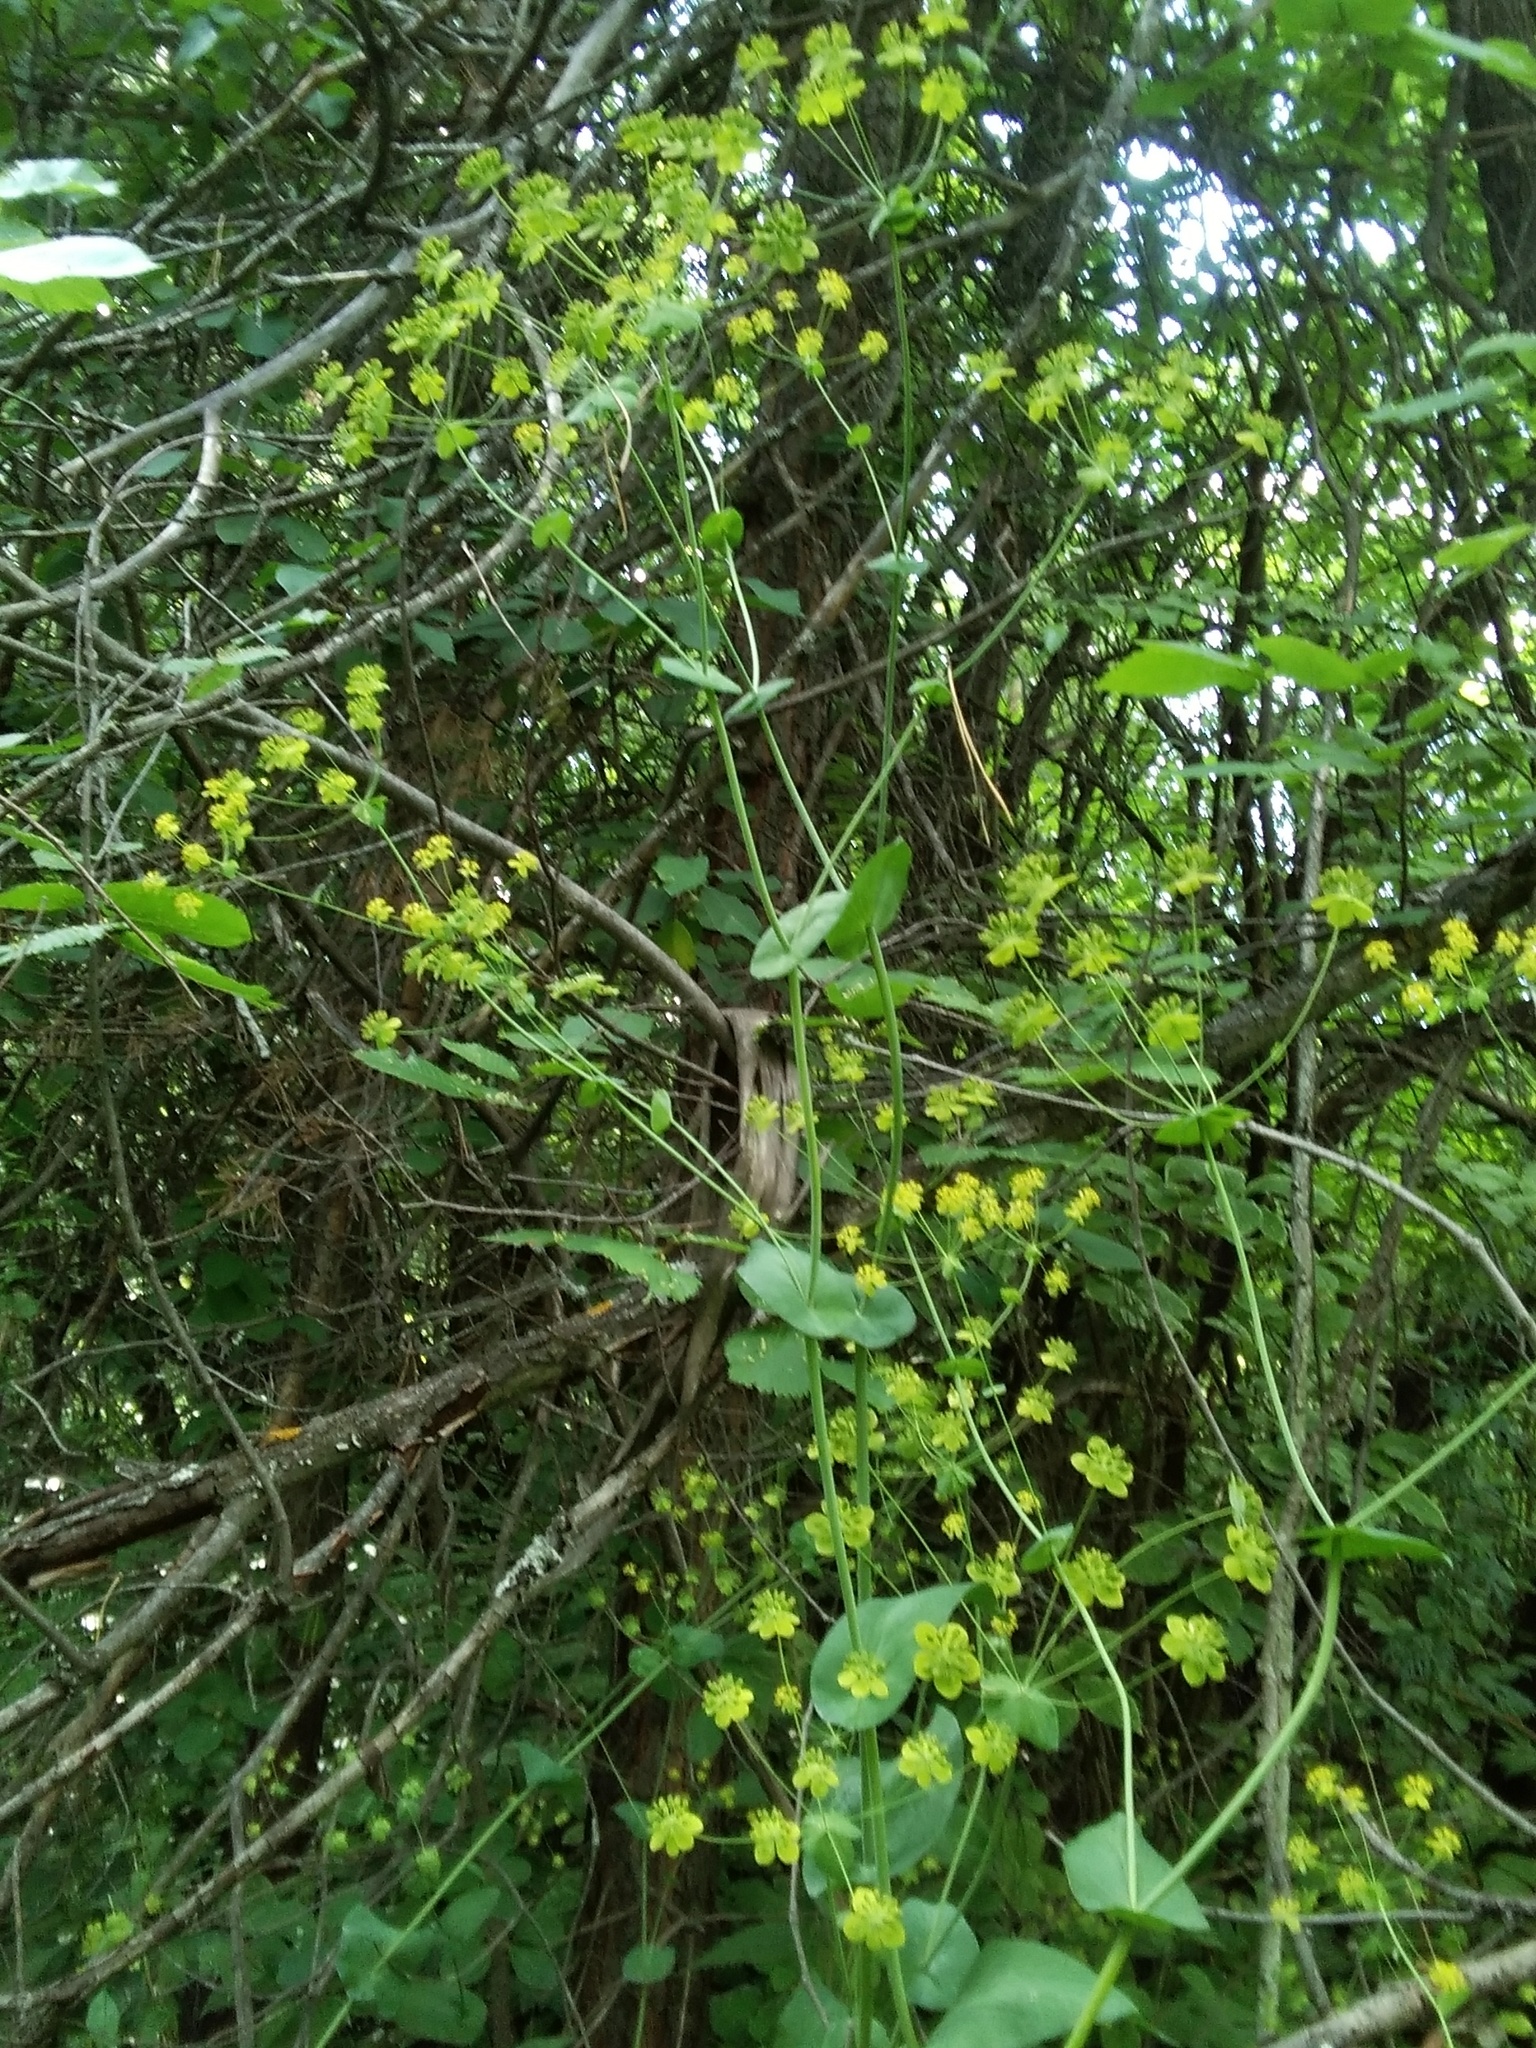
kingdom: Plantae
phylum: Tracheophyta
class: Magnoliopsida
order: Apiales
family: Apiaceae
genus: Bupleurum
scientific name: Bupleurum aureum
